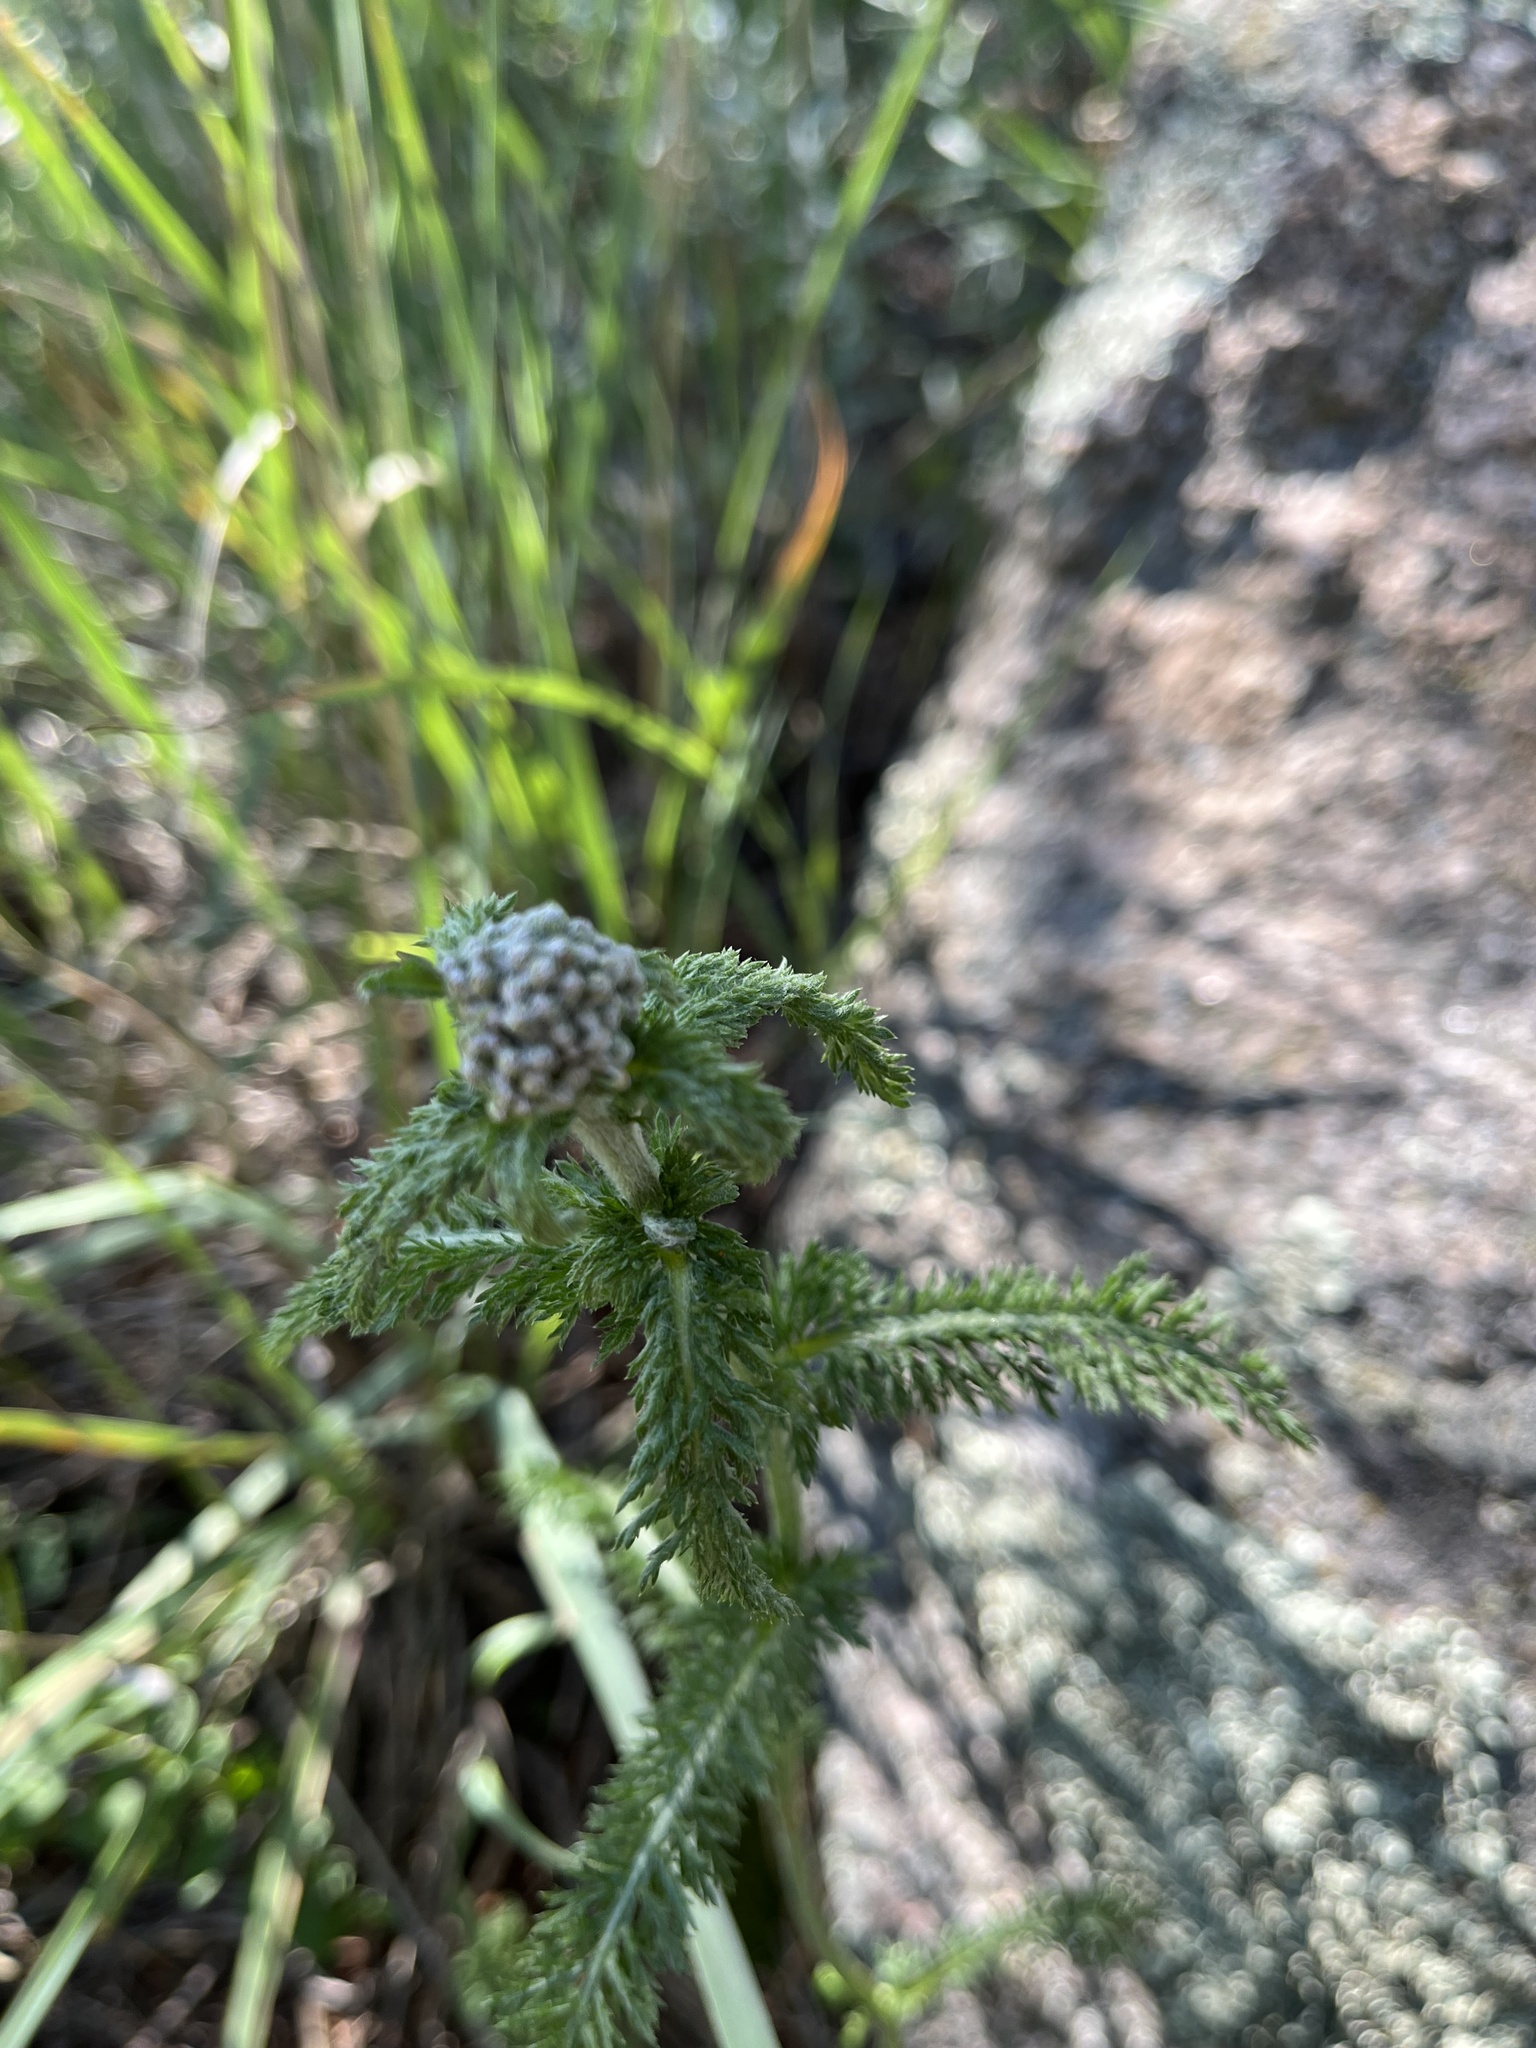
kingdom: Plantae
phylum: Tracheophyta
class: Magnoliopsida
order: Asterales
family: Asteraceae
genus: Achillea
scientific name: Achillea millefolium
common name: Yarrow
